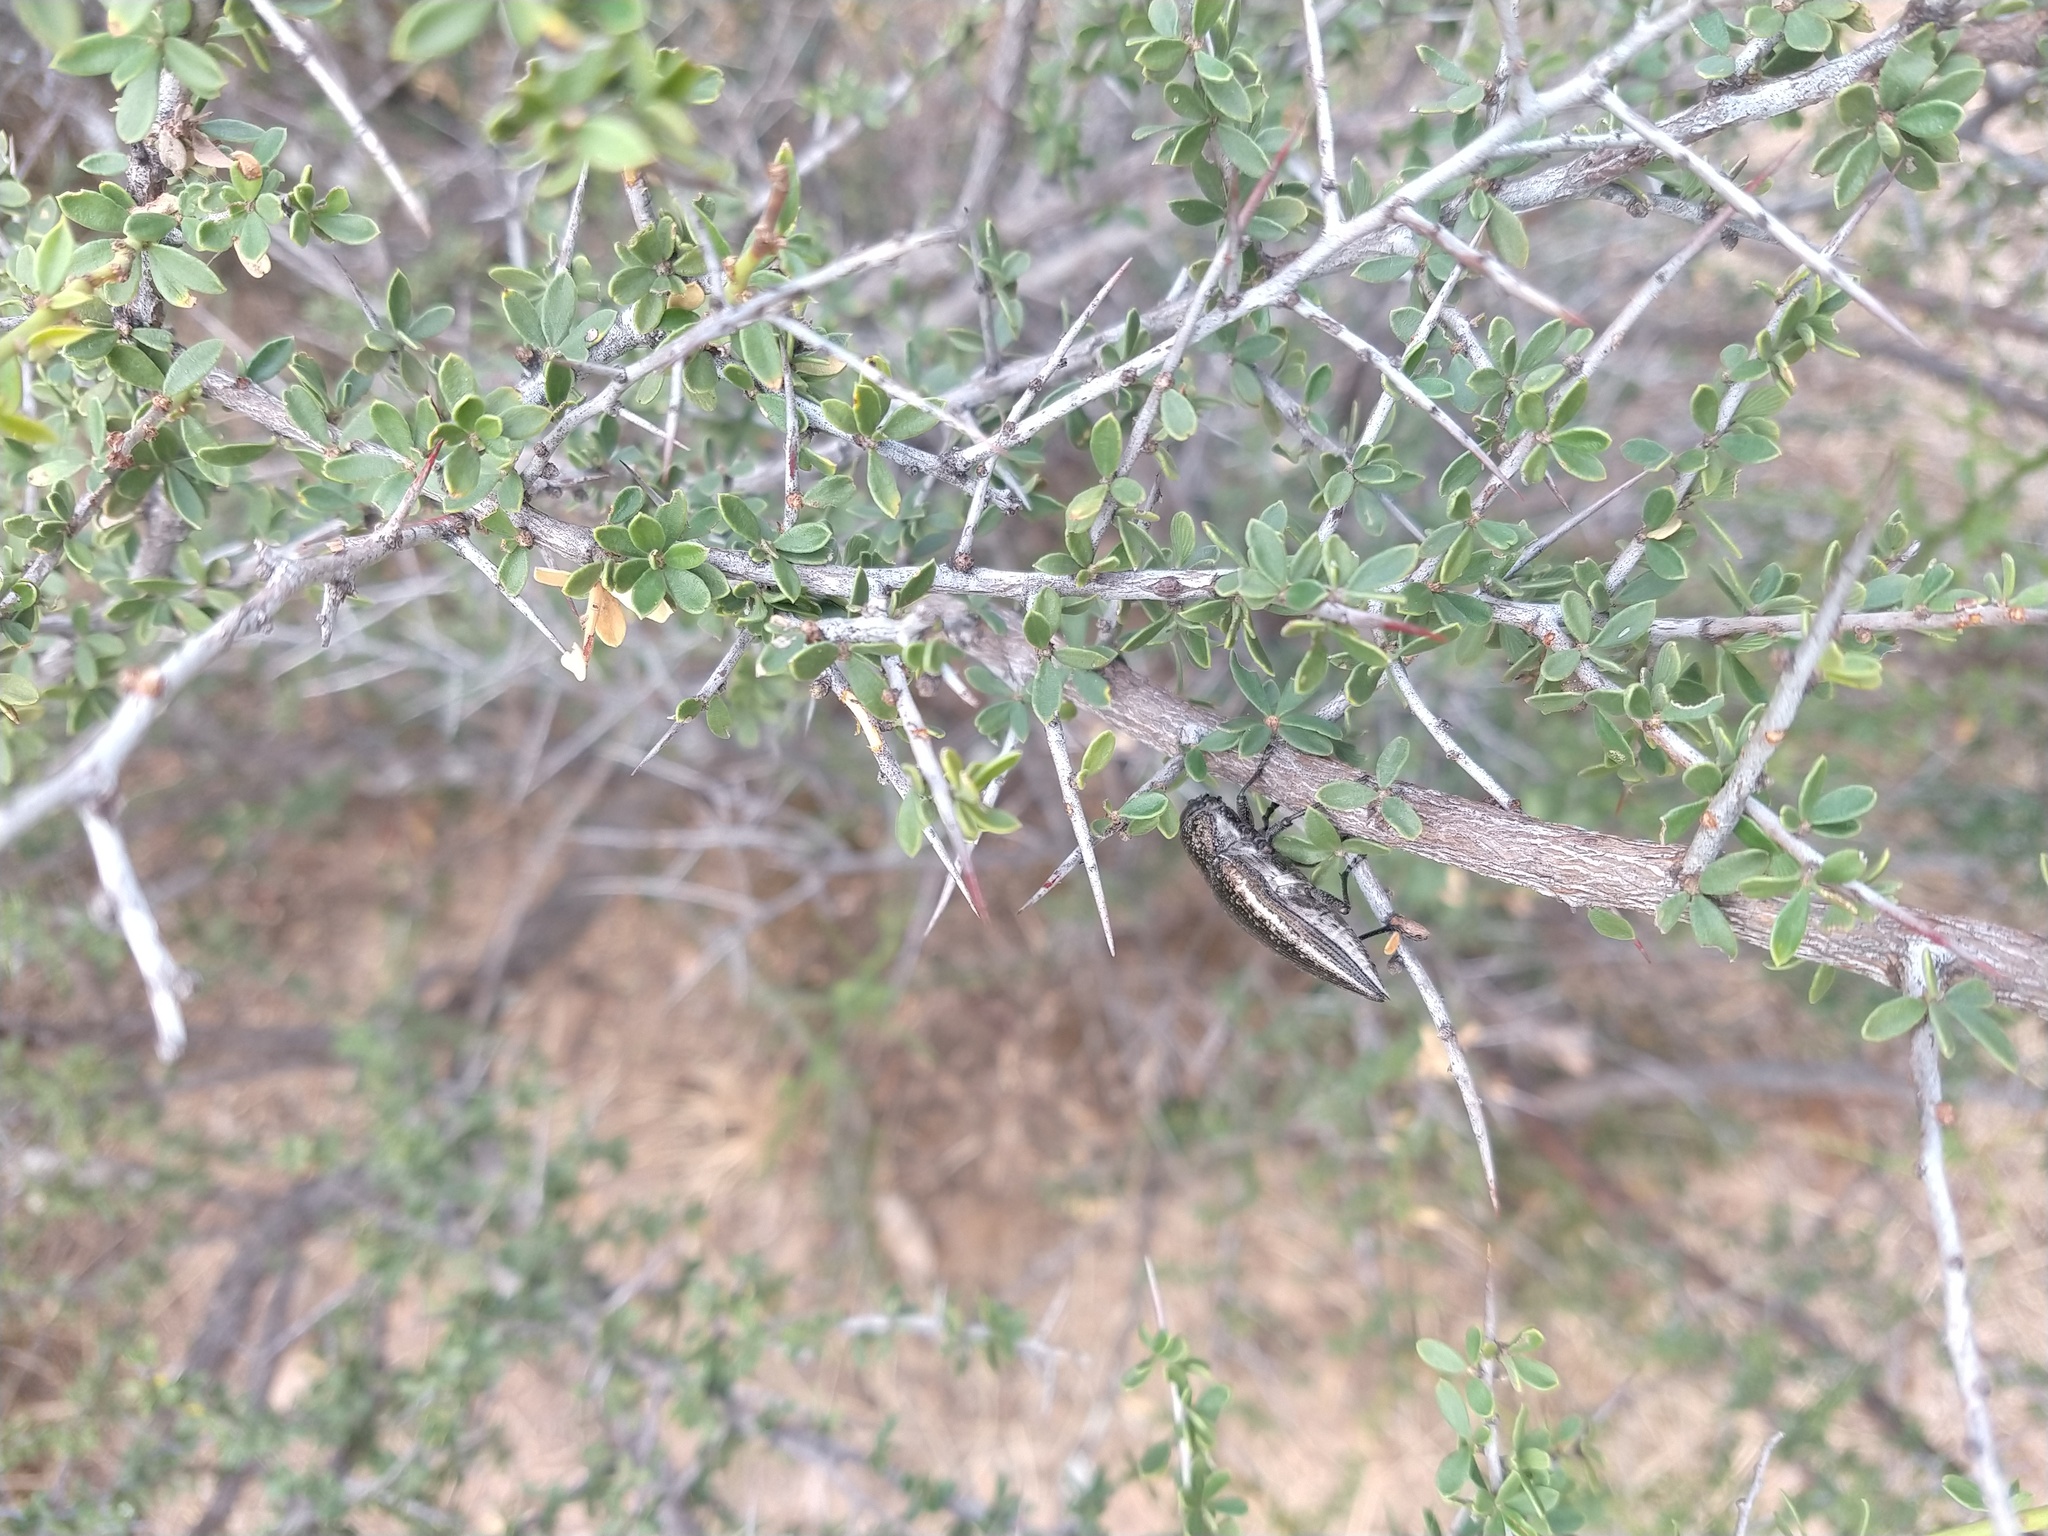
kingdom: Animalia
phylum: Arthropoda
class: Insecta
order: Coleoptera
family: Buprestidae
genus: Lampetis
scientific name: Lampetis corinthia
